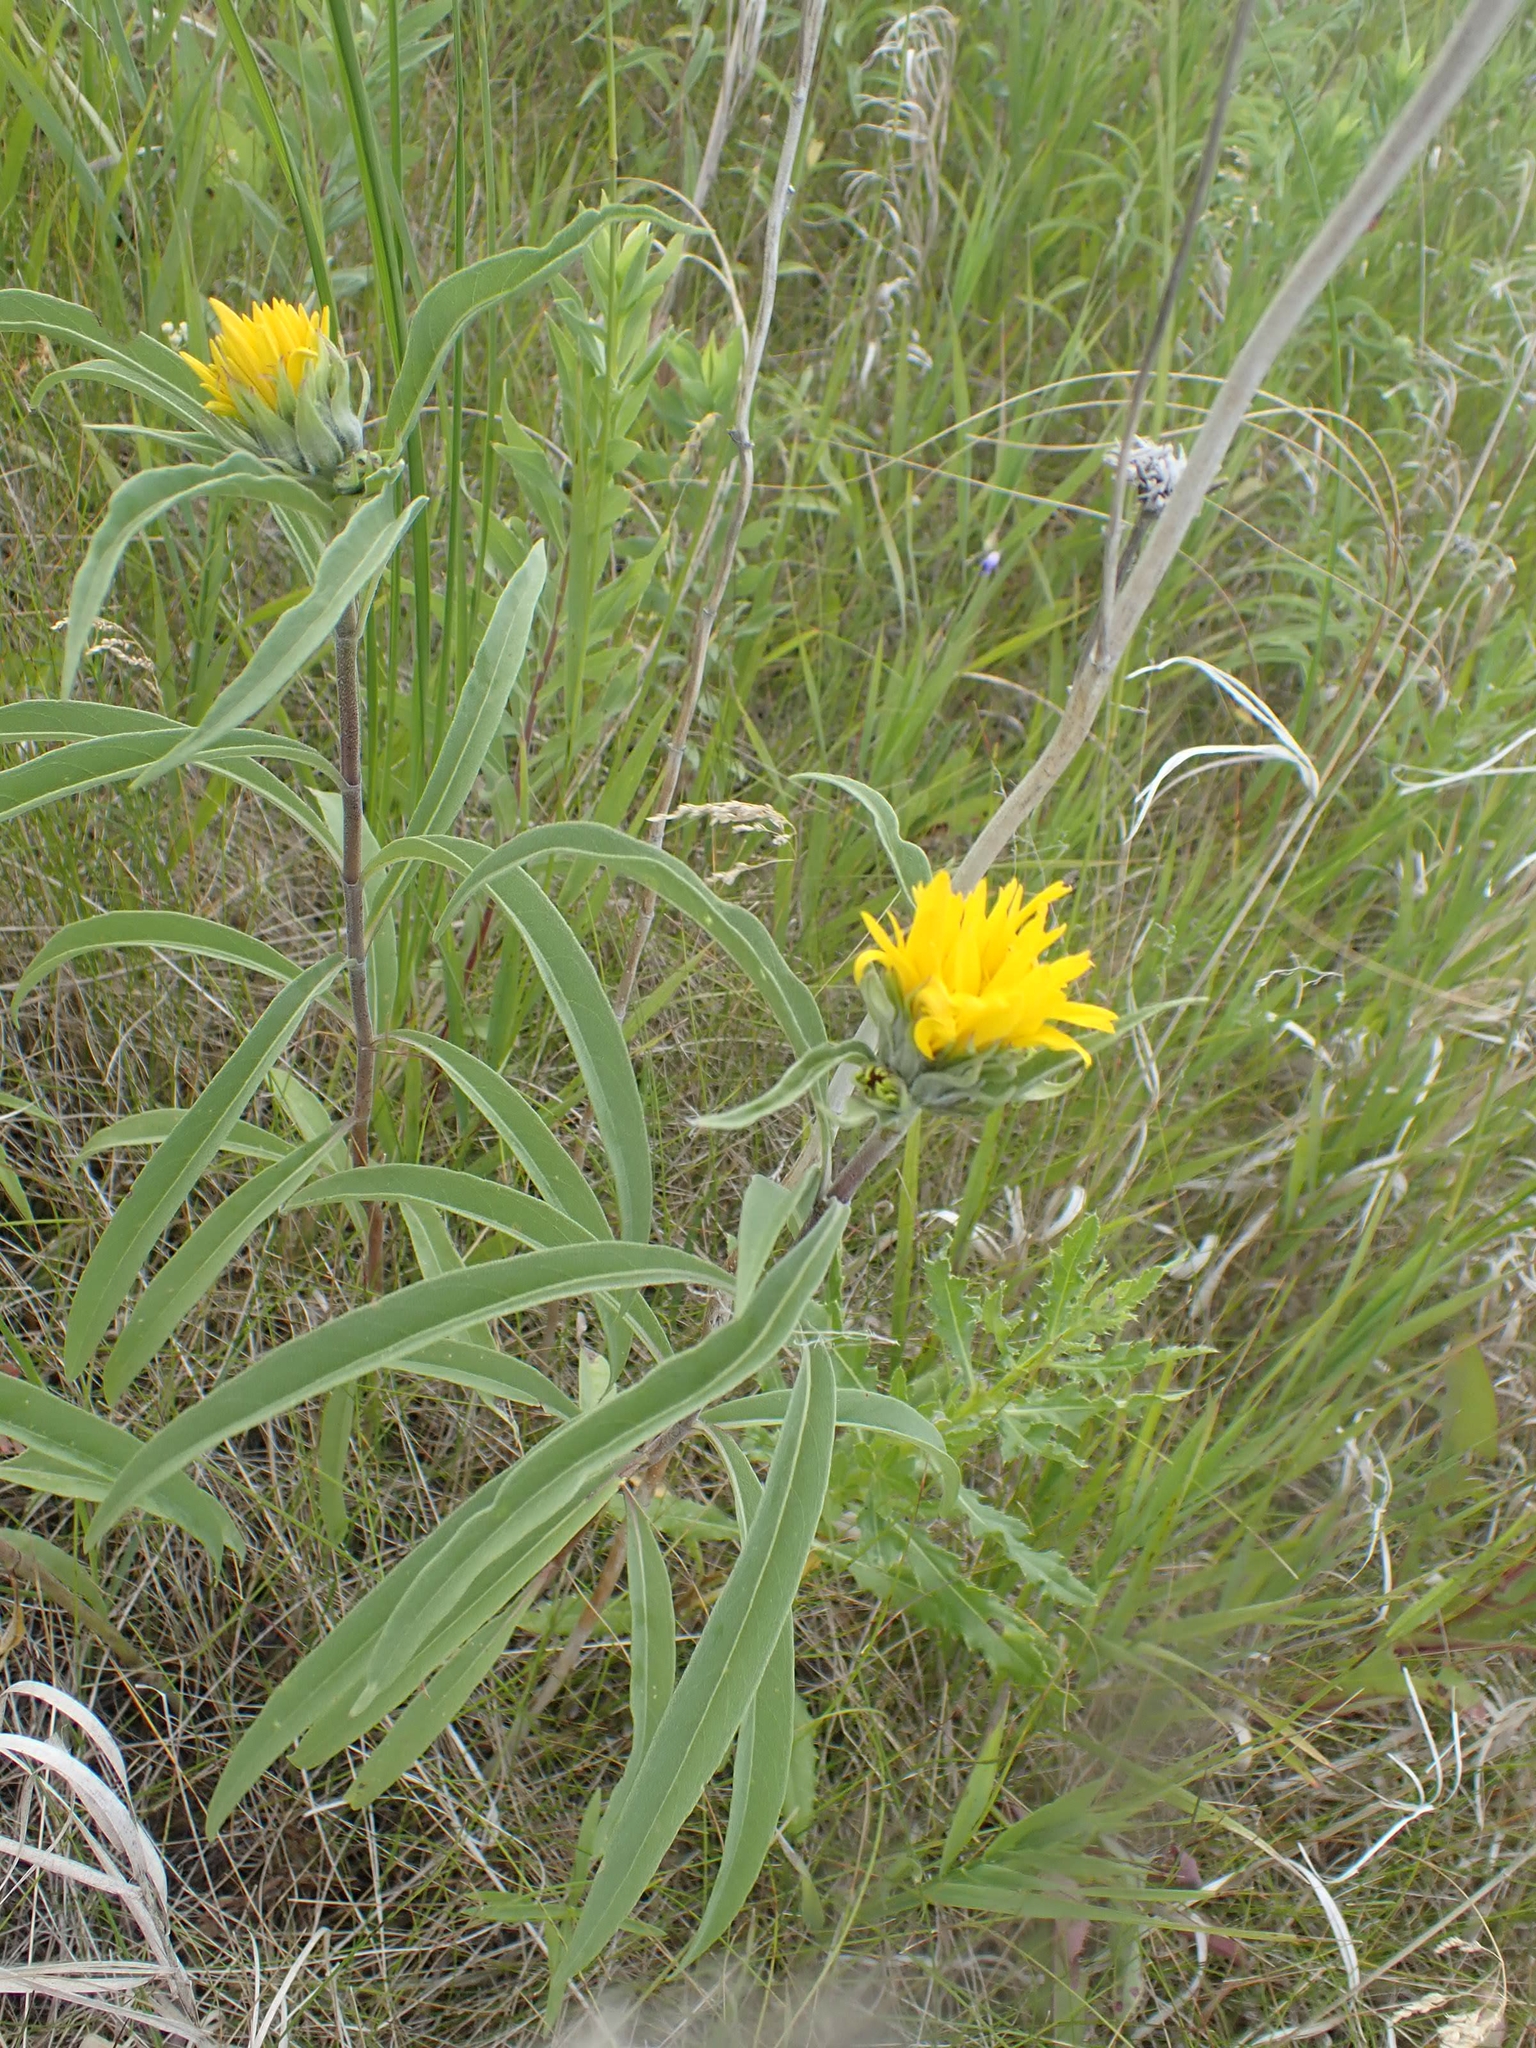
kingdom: Plantae
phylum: Tracheophyta
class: Magnoliopsida
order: Asterales
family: Asteraceae
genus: Helianthus
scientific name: Helianthus maximiliani
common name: Maximilian's sunflower
